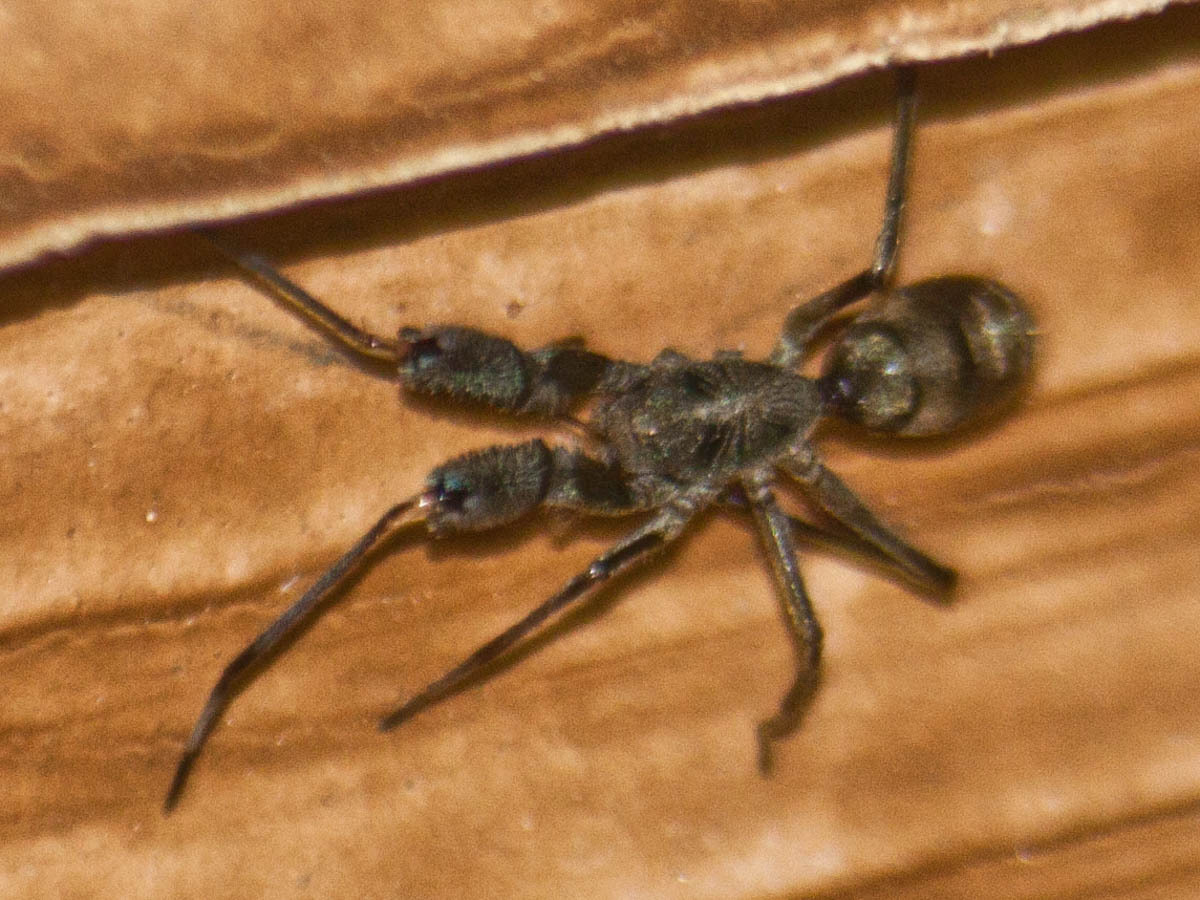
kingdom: Animalia
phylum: Arthropoda
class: Arachnida
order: Araneae
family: Corinnidae
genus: Pranburia
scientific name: Pranburia mahannopi
